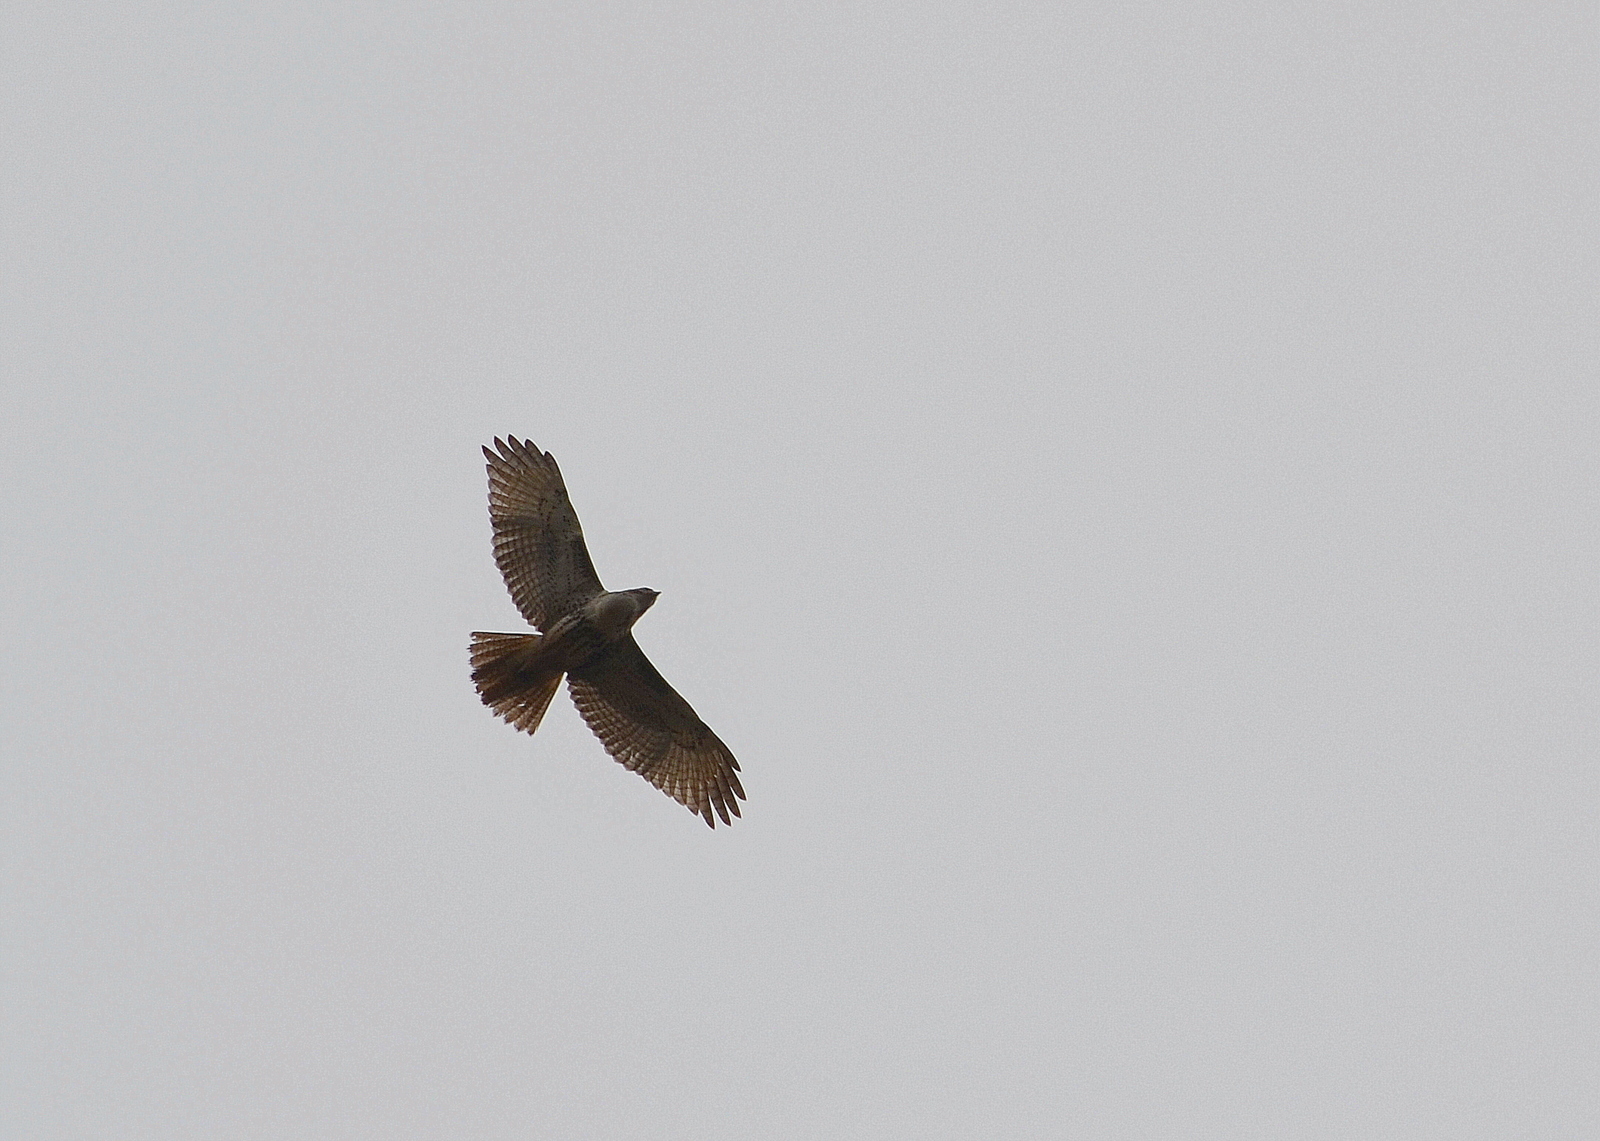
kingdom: Animalia
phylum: Chordata
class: Aves
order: Accipitriformes
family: Accipitridae
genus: Buteo
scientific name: Buteo jamaicensis
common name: Red-tailed hawk
